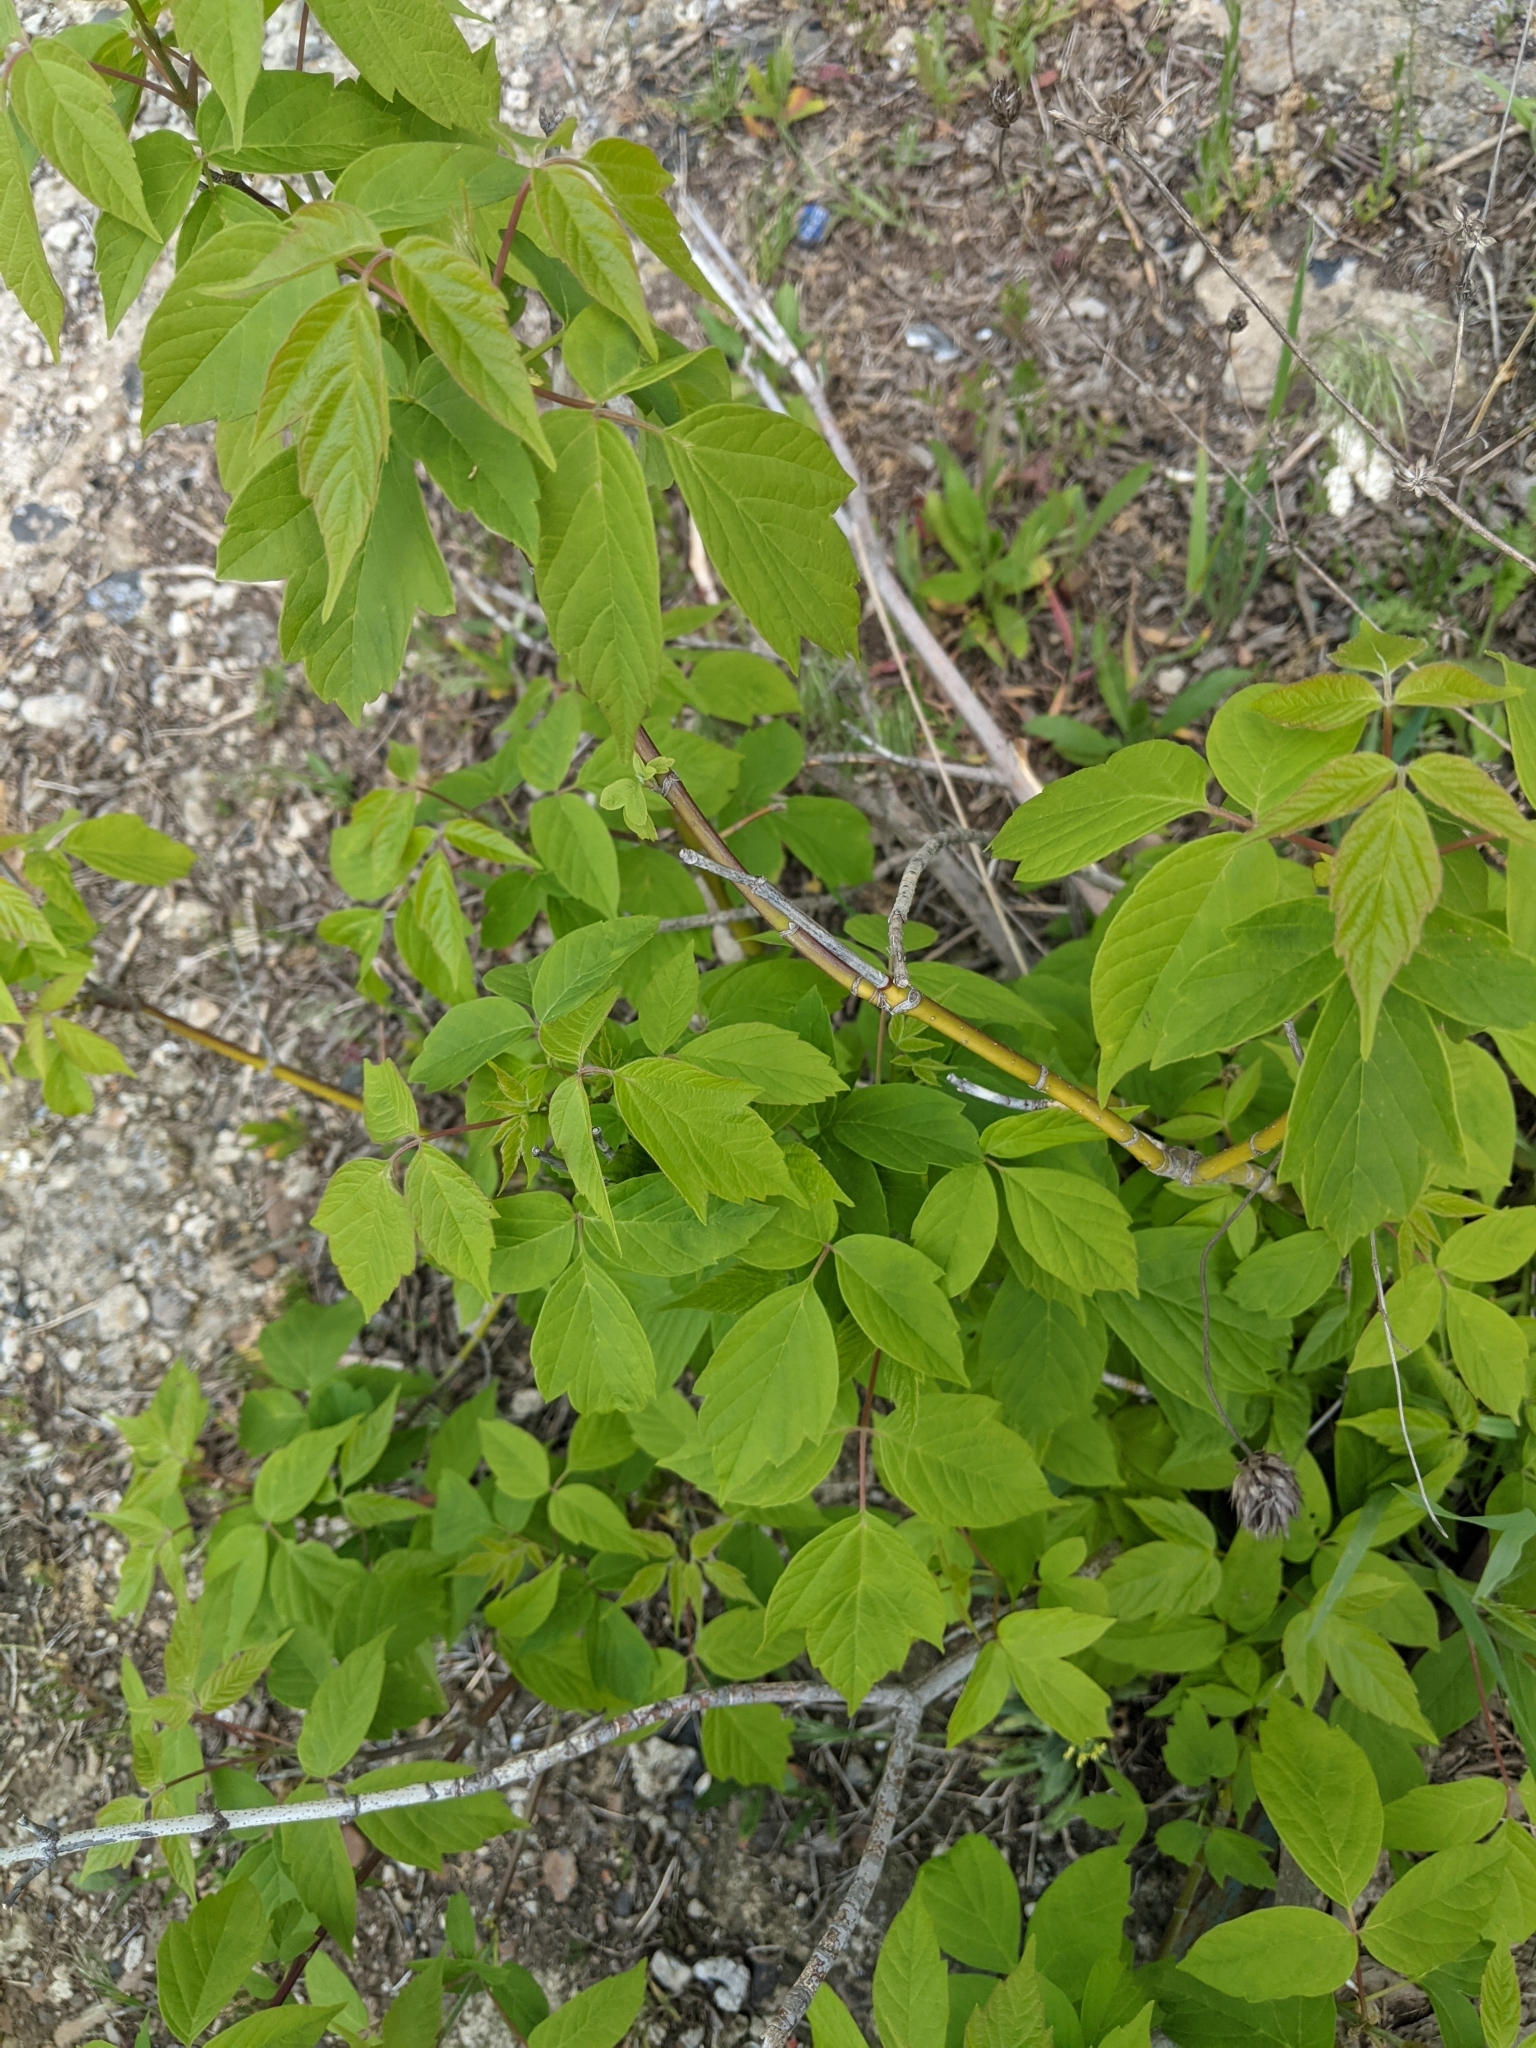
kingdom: Plantae
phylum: Tracheophyta
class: Magnoliopsida
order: Sapindales
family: Sapindaceae
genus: Acer
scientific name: Acer negundo
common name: Ashleaf maple
